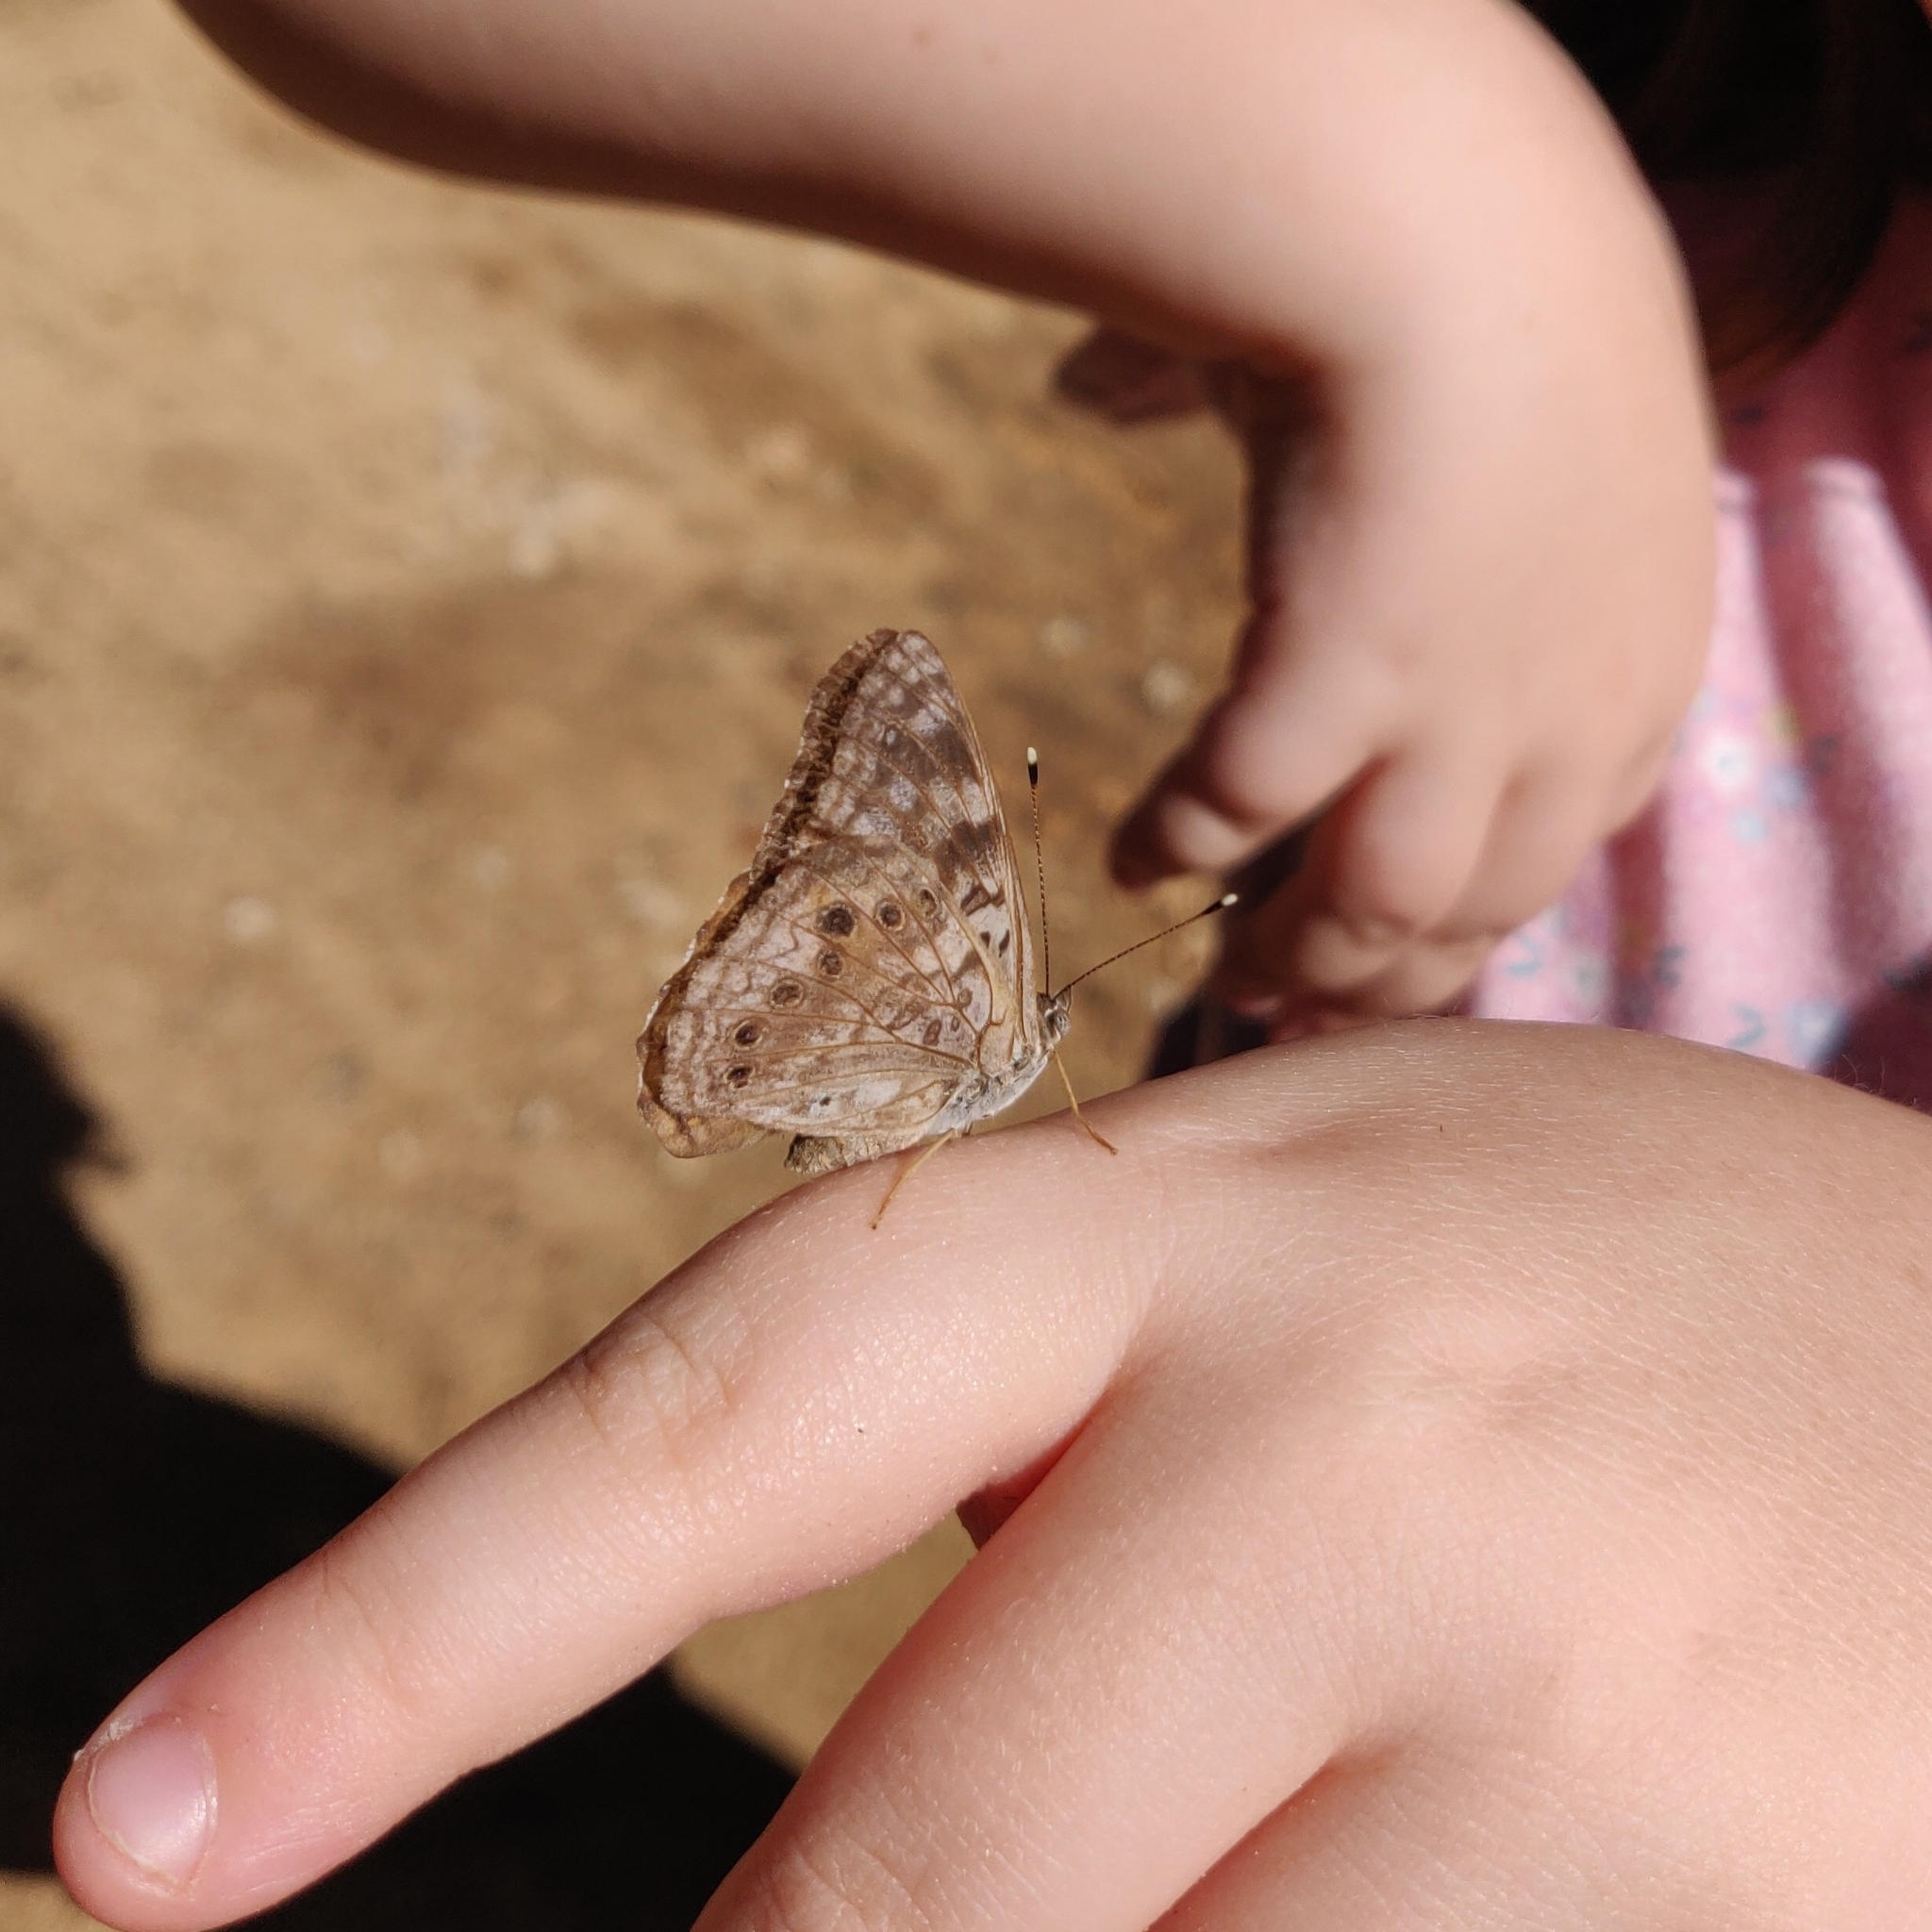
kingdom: Animalia
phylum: Arthropoda
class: Insecta
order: Lepidoptera
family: Nymphalidae
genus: Asterocampa
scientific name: Asterocampa celtis
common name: Hackberry emperor
